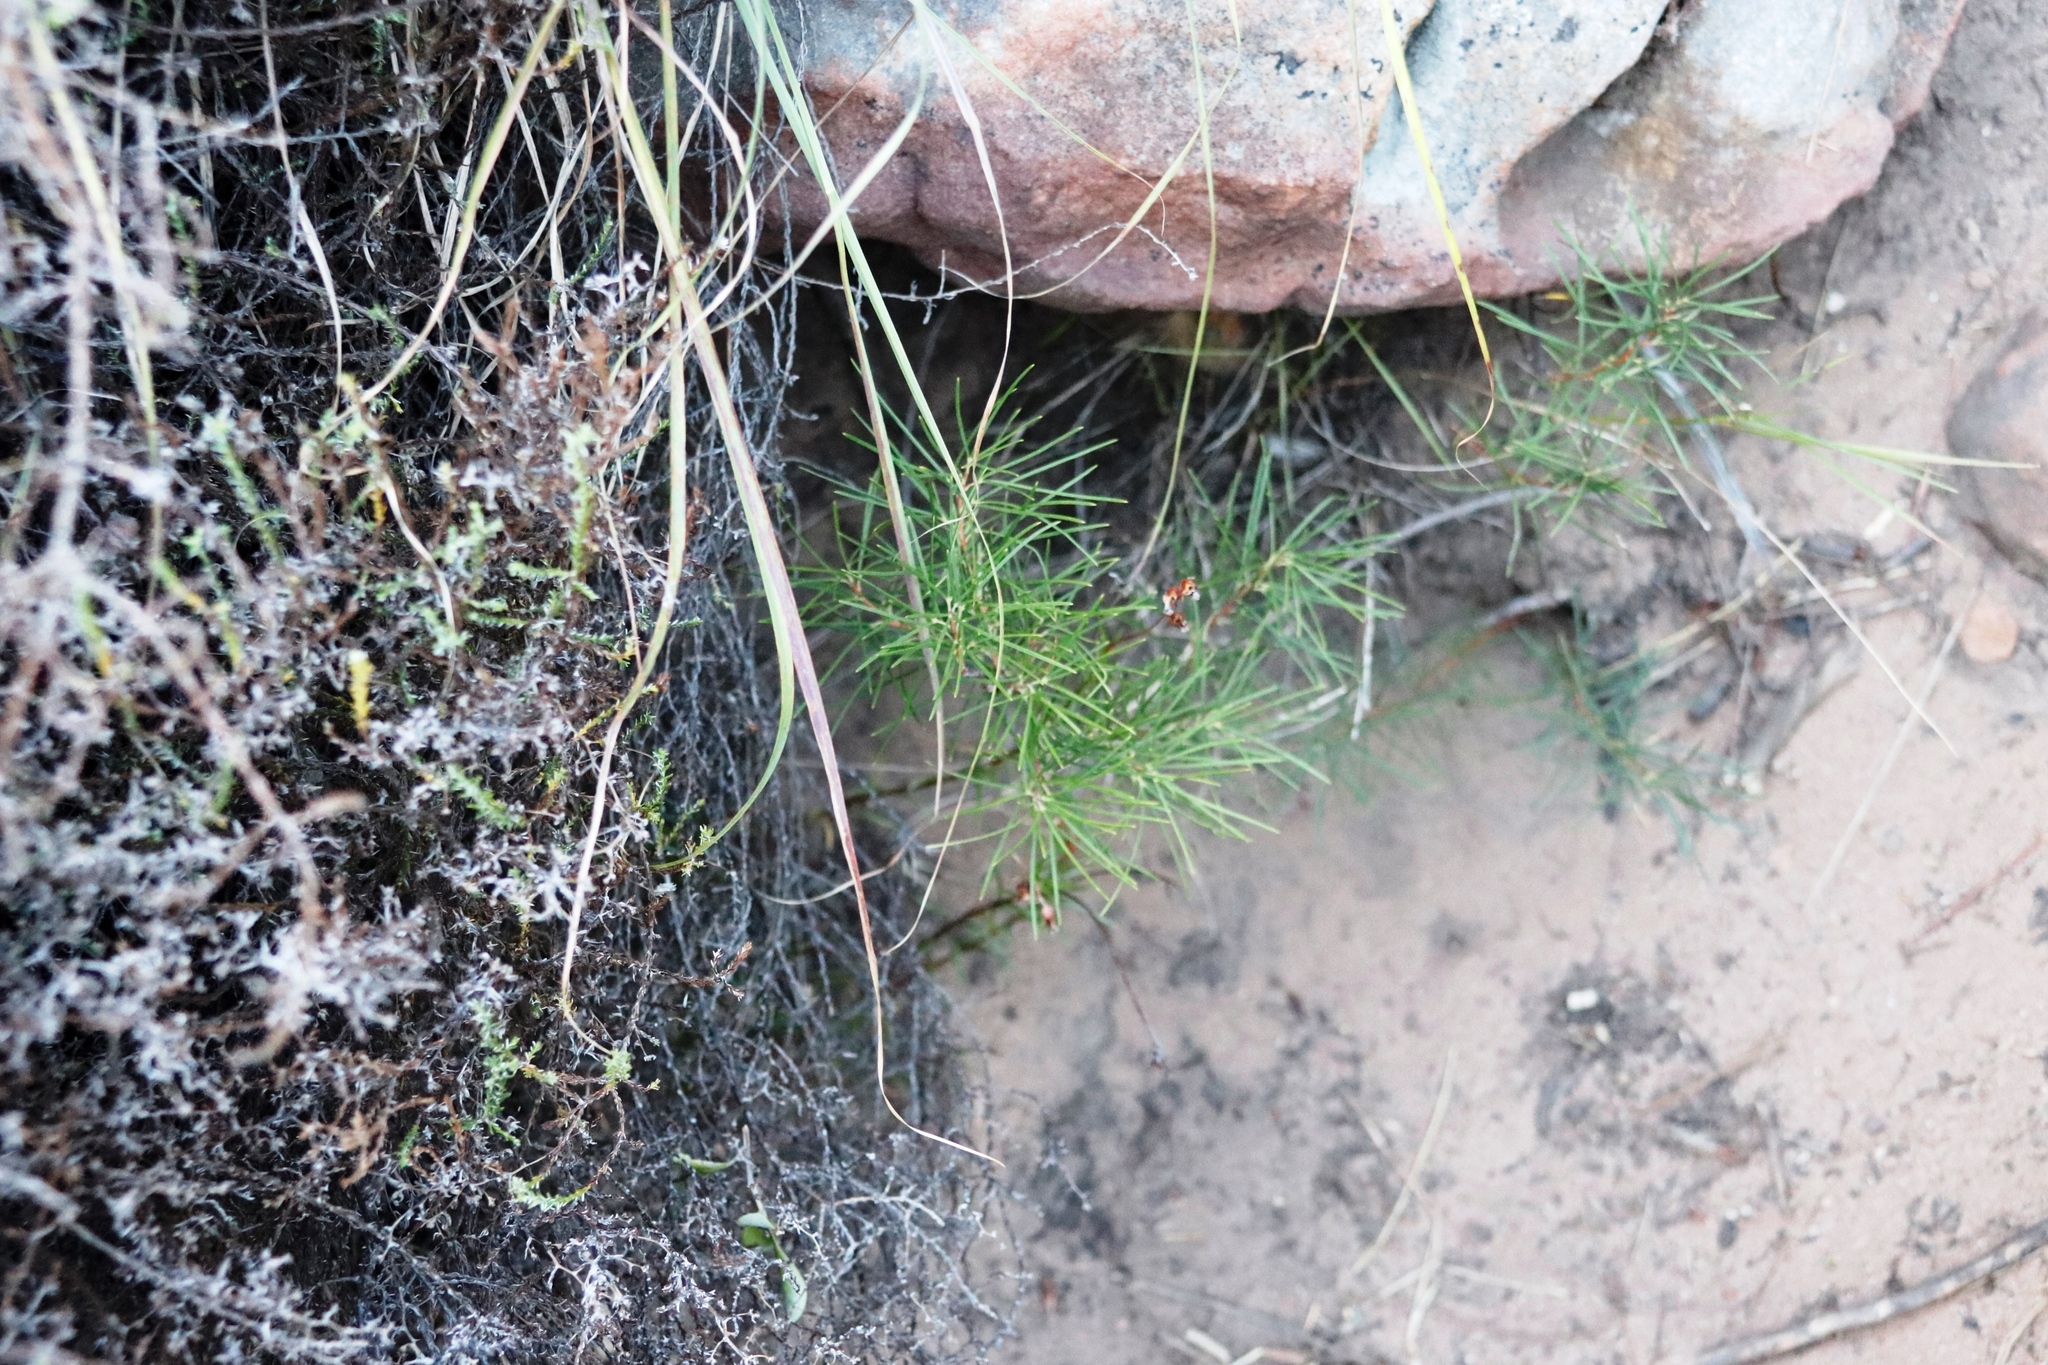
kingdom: Plantae
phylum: Tracheophyta
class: Magnoliopsida
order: Sapindales
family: Anacardiaceae
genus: Searsia
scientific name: Searsia rosmarinifolia
